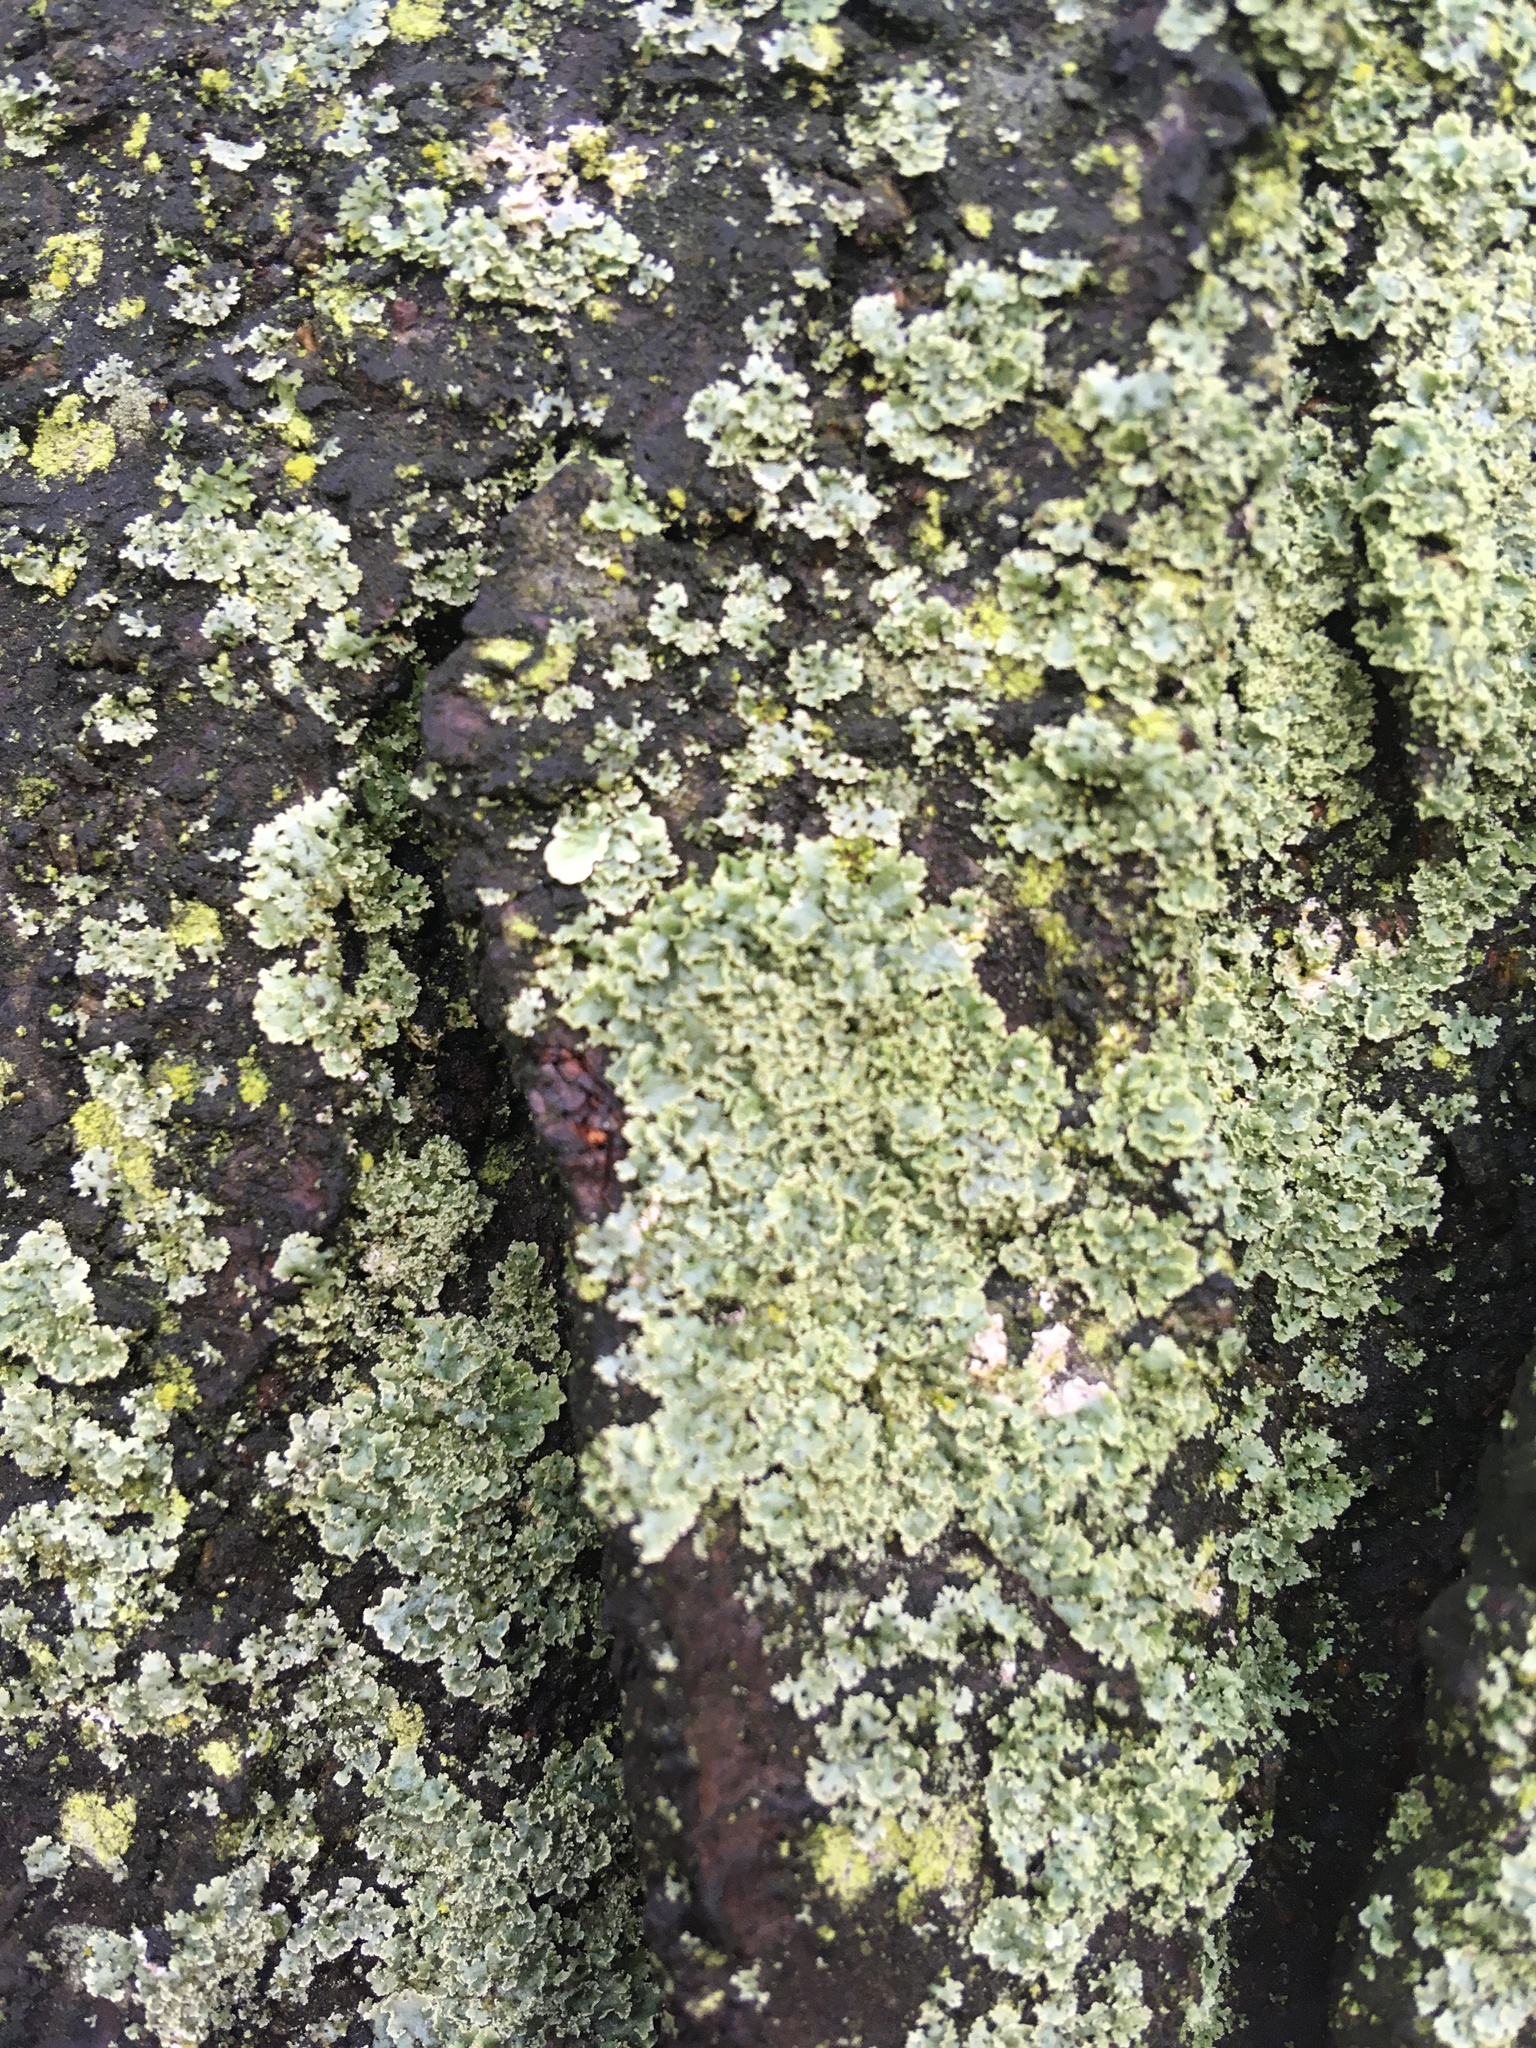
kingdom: Fungi
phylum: Ascomycota
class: Lecanoromycetes
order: Caliciales
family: Physciaceae
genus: Physcia
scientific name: Physcia millegrana
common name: Rosette lichen
